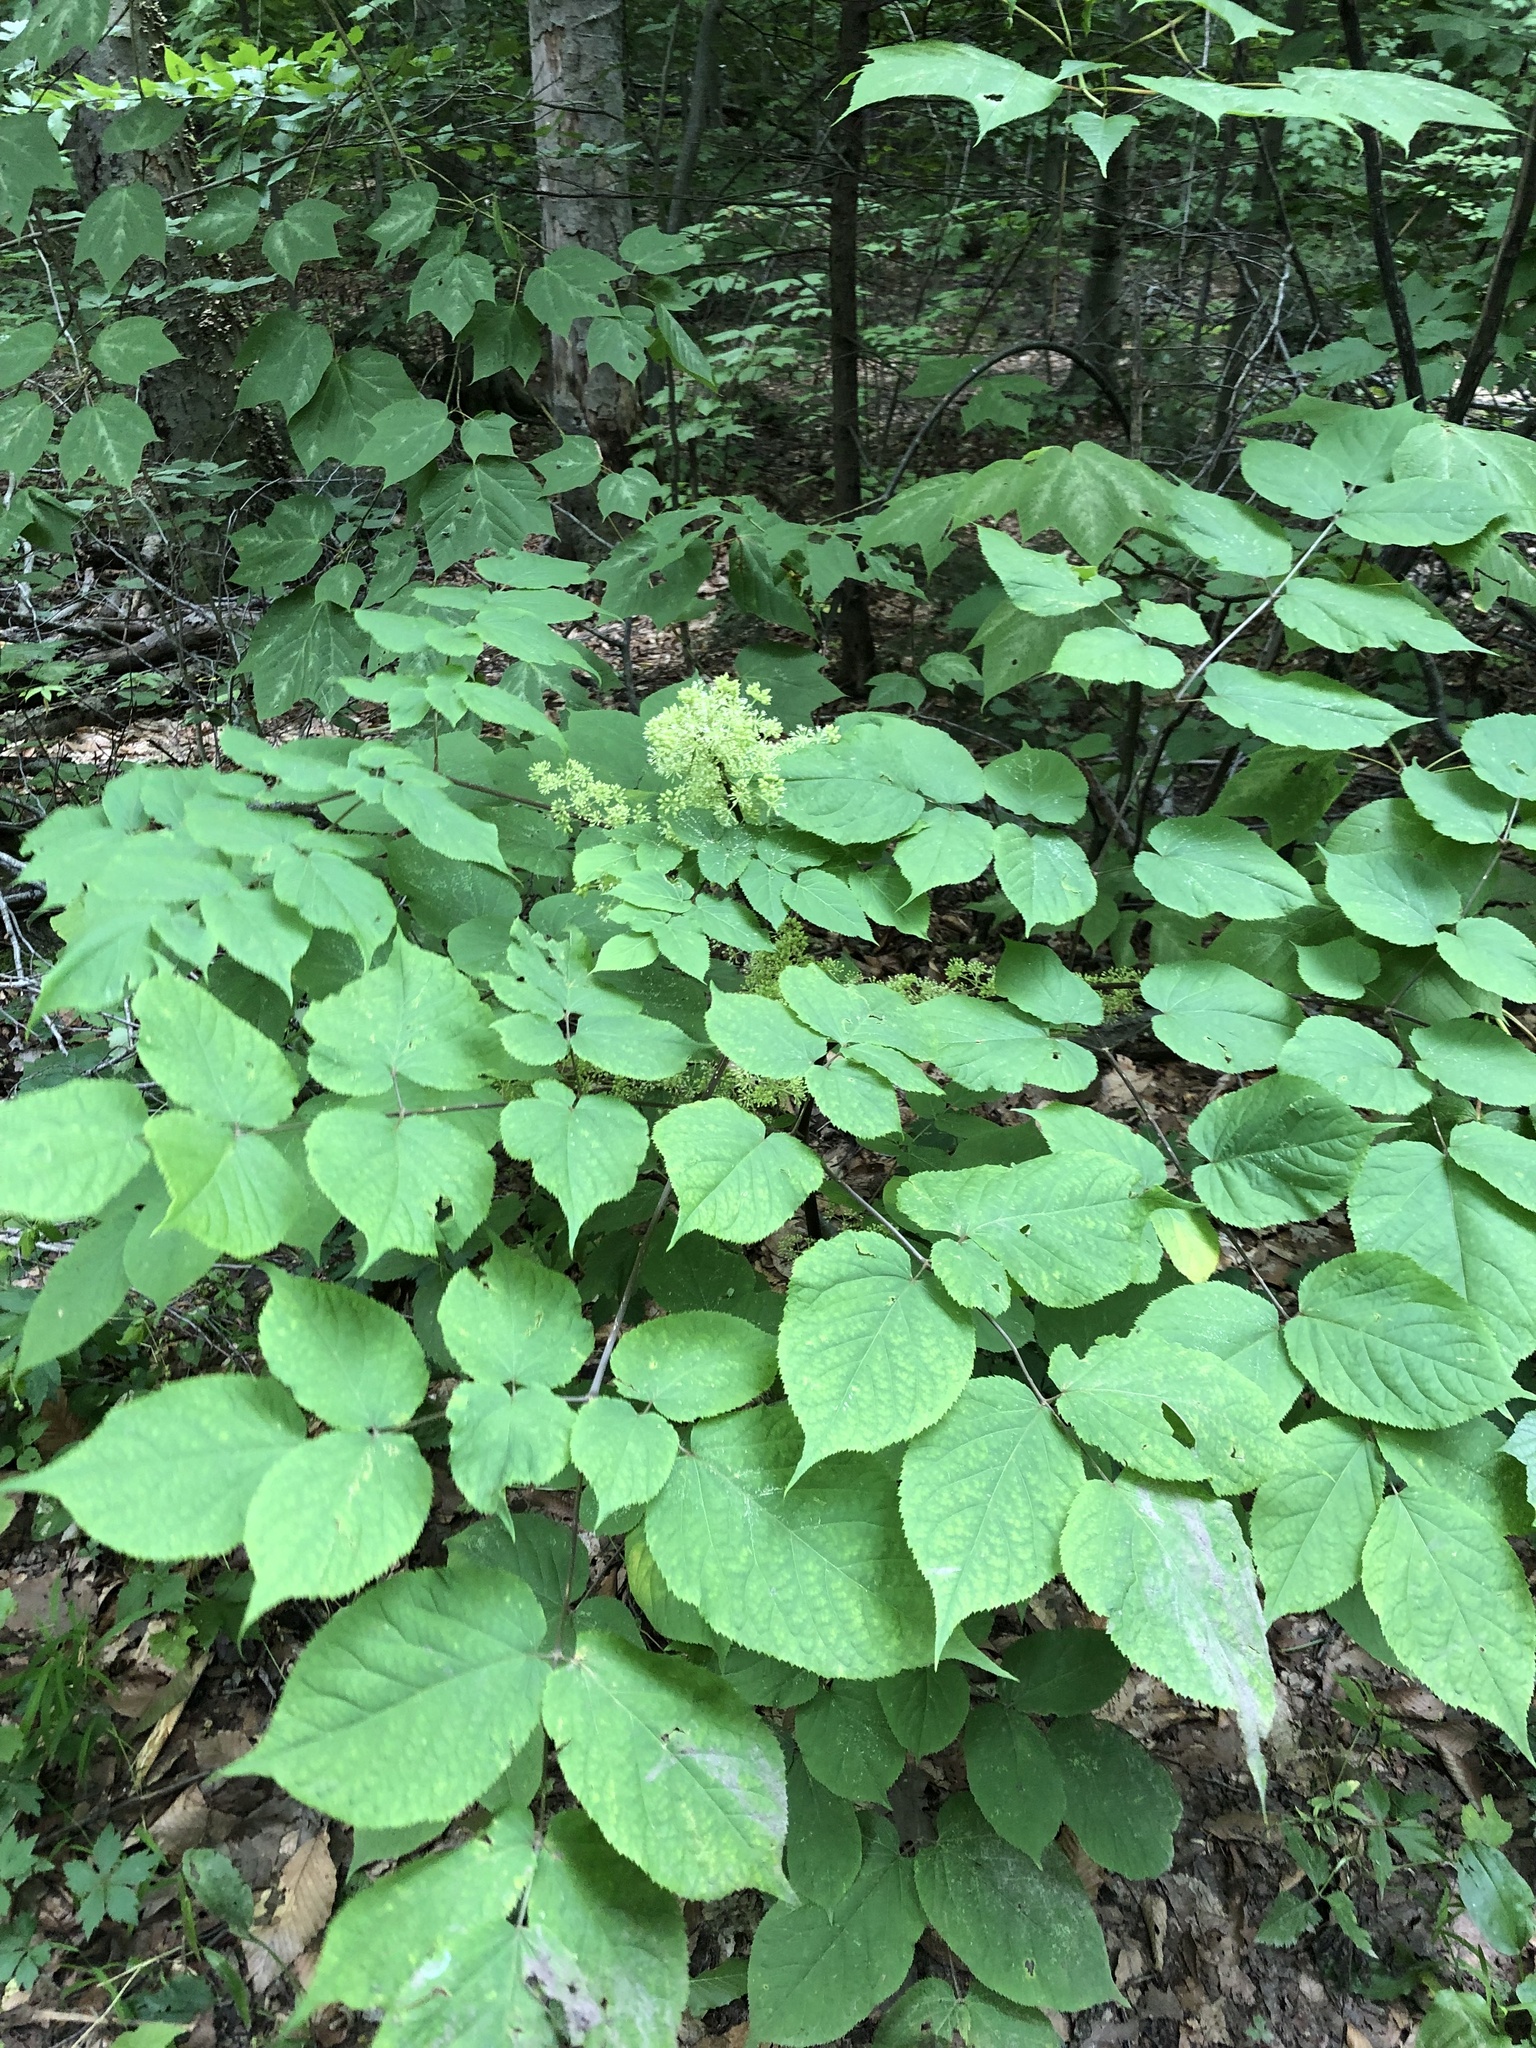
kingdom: Plantae
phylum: Tracheophyta
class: Magnoliopsida
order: Apiales
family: Araliaceae
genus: Aralia
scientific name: Aralia racemosa
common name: American-spikenard
